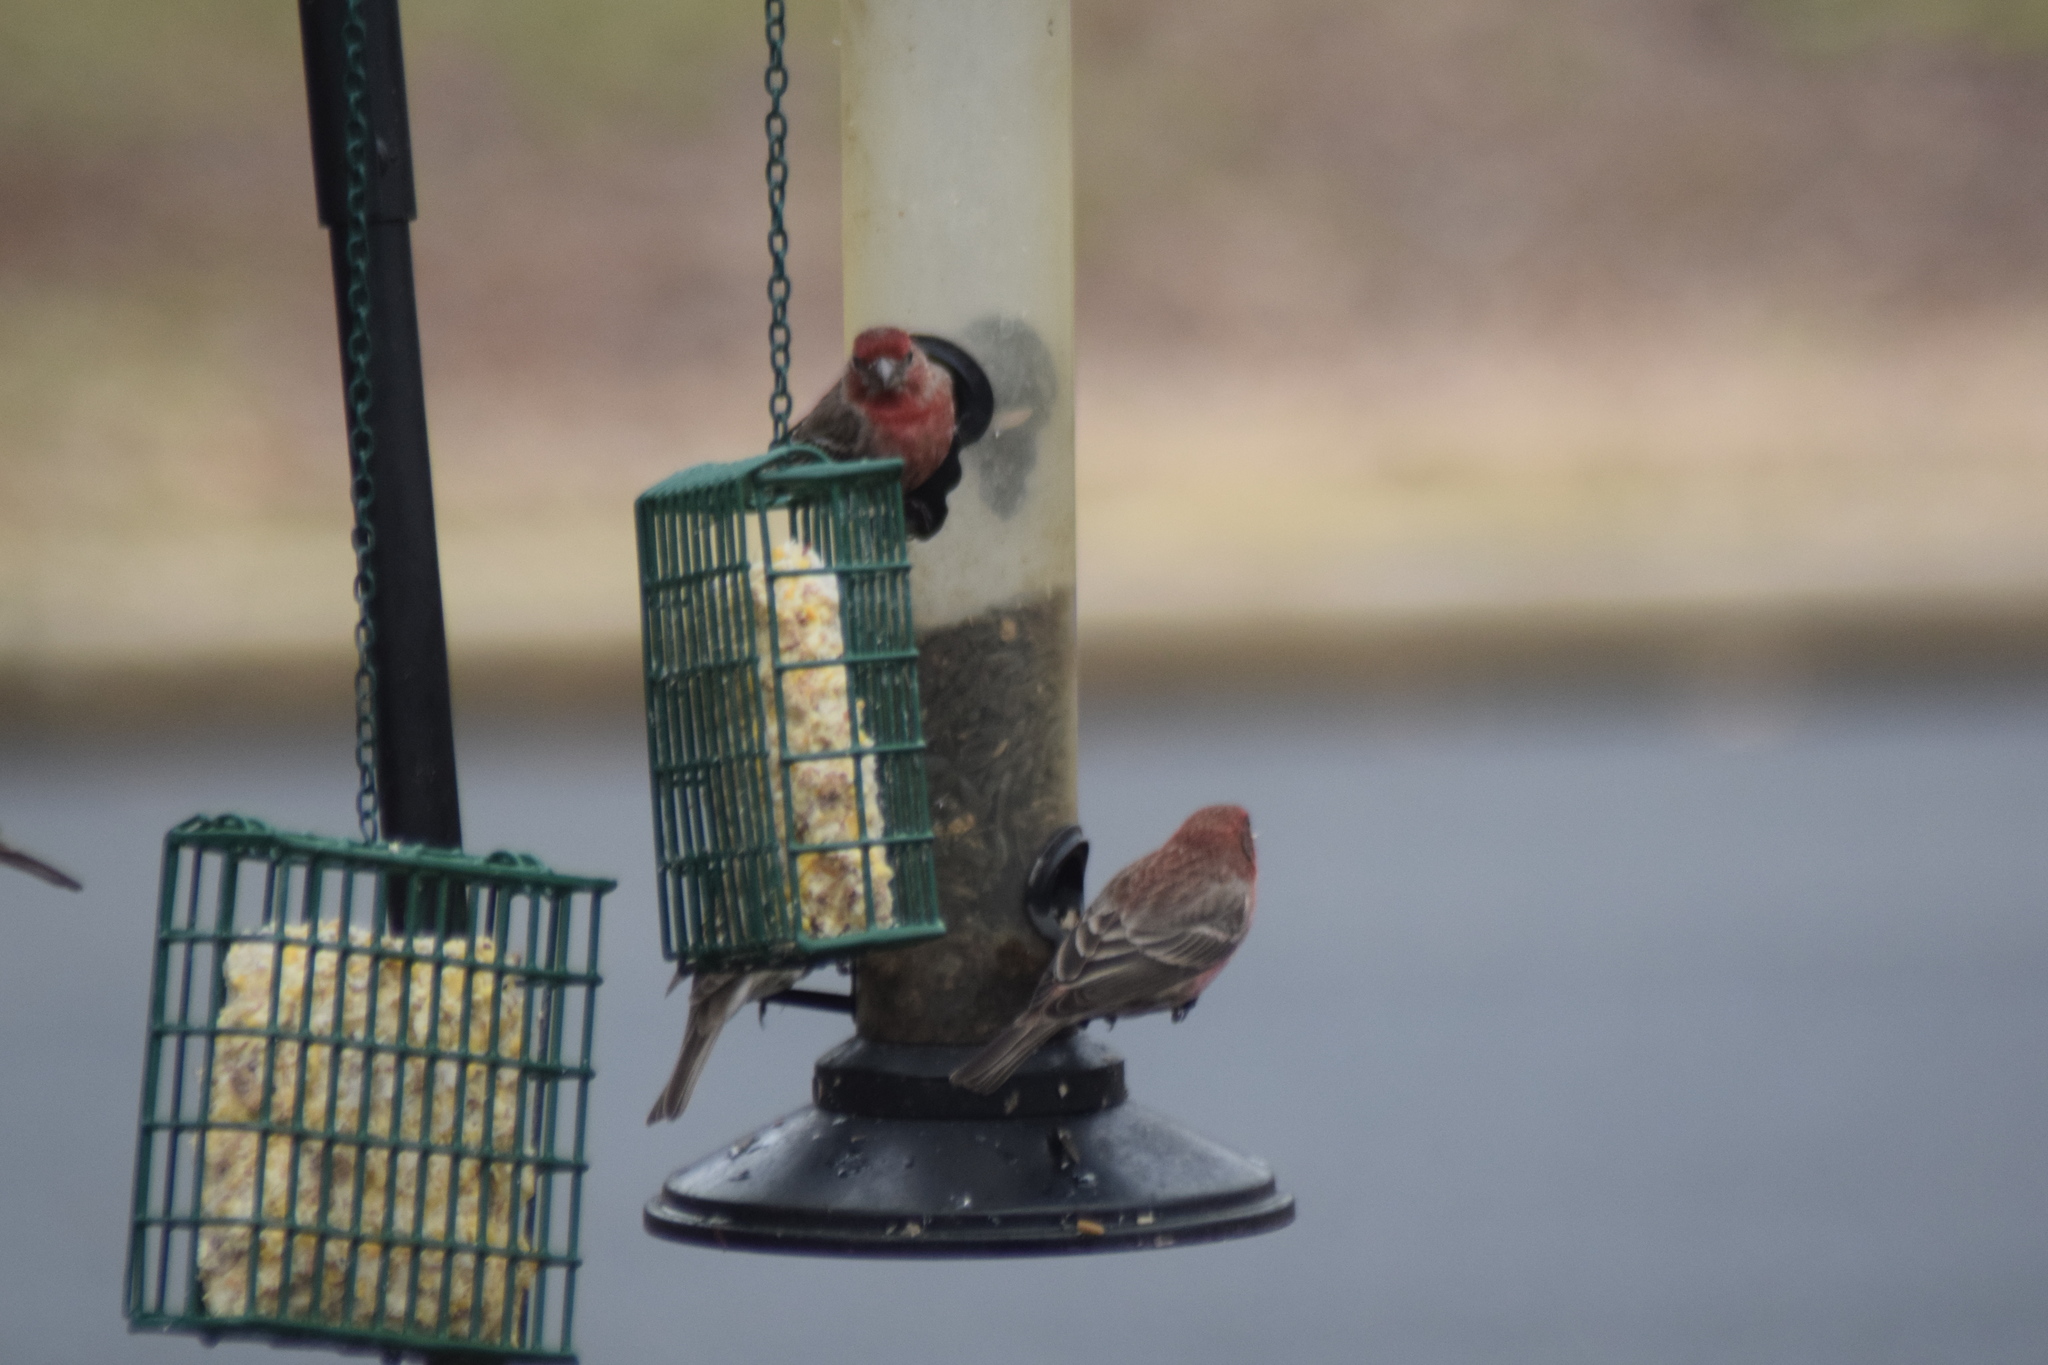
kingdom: Animalia
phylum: Chordata
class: Aves
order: Passeriformes
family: Fringillidae
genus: Haemorhous
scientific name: Haemorhous mexicanus
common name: House finch
